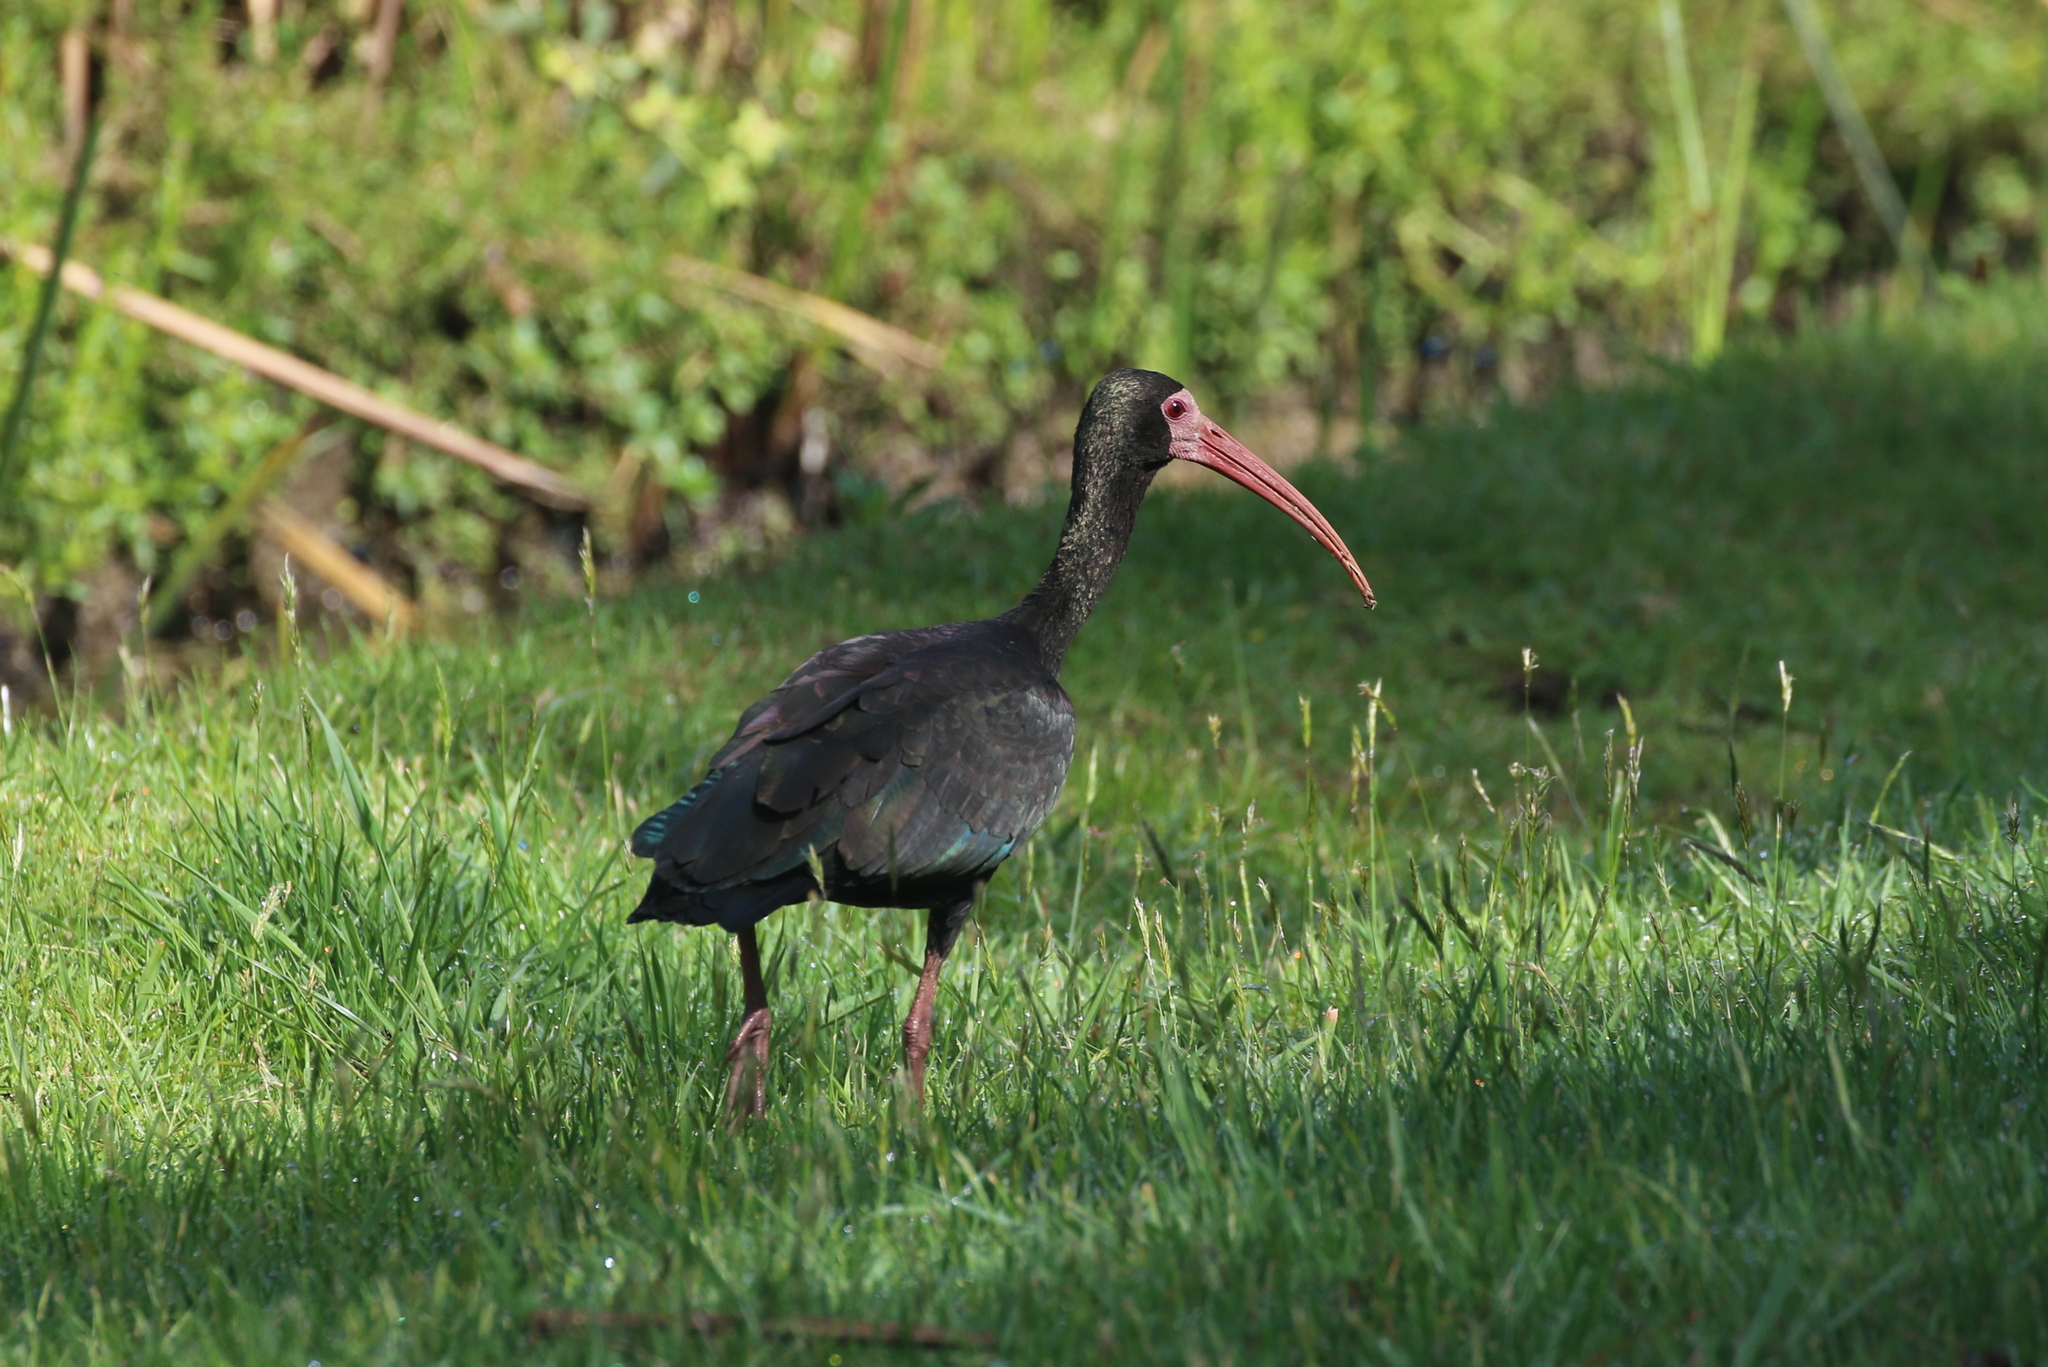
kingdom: Animalia
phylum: Chordata
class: Aves
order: Pelecaniformes
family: Threskiornithidae
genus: Phimosus
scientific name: Phimosus infuscatus
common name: Bare-faced ibis
